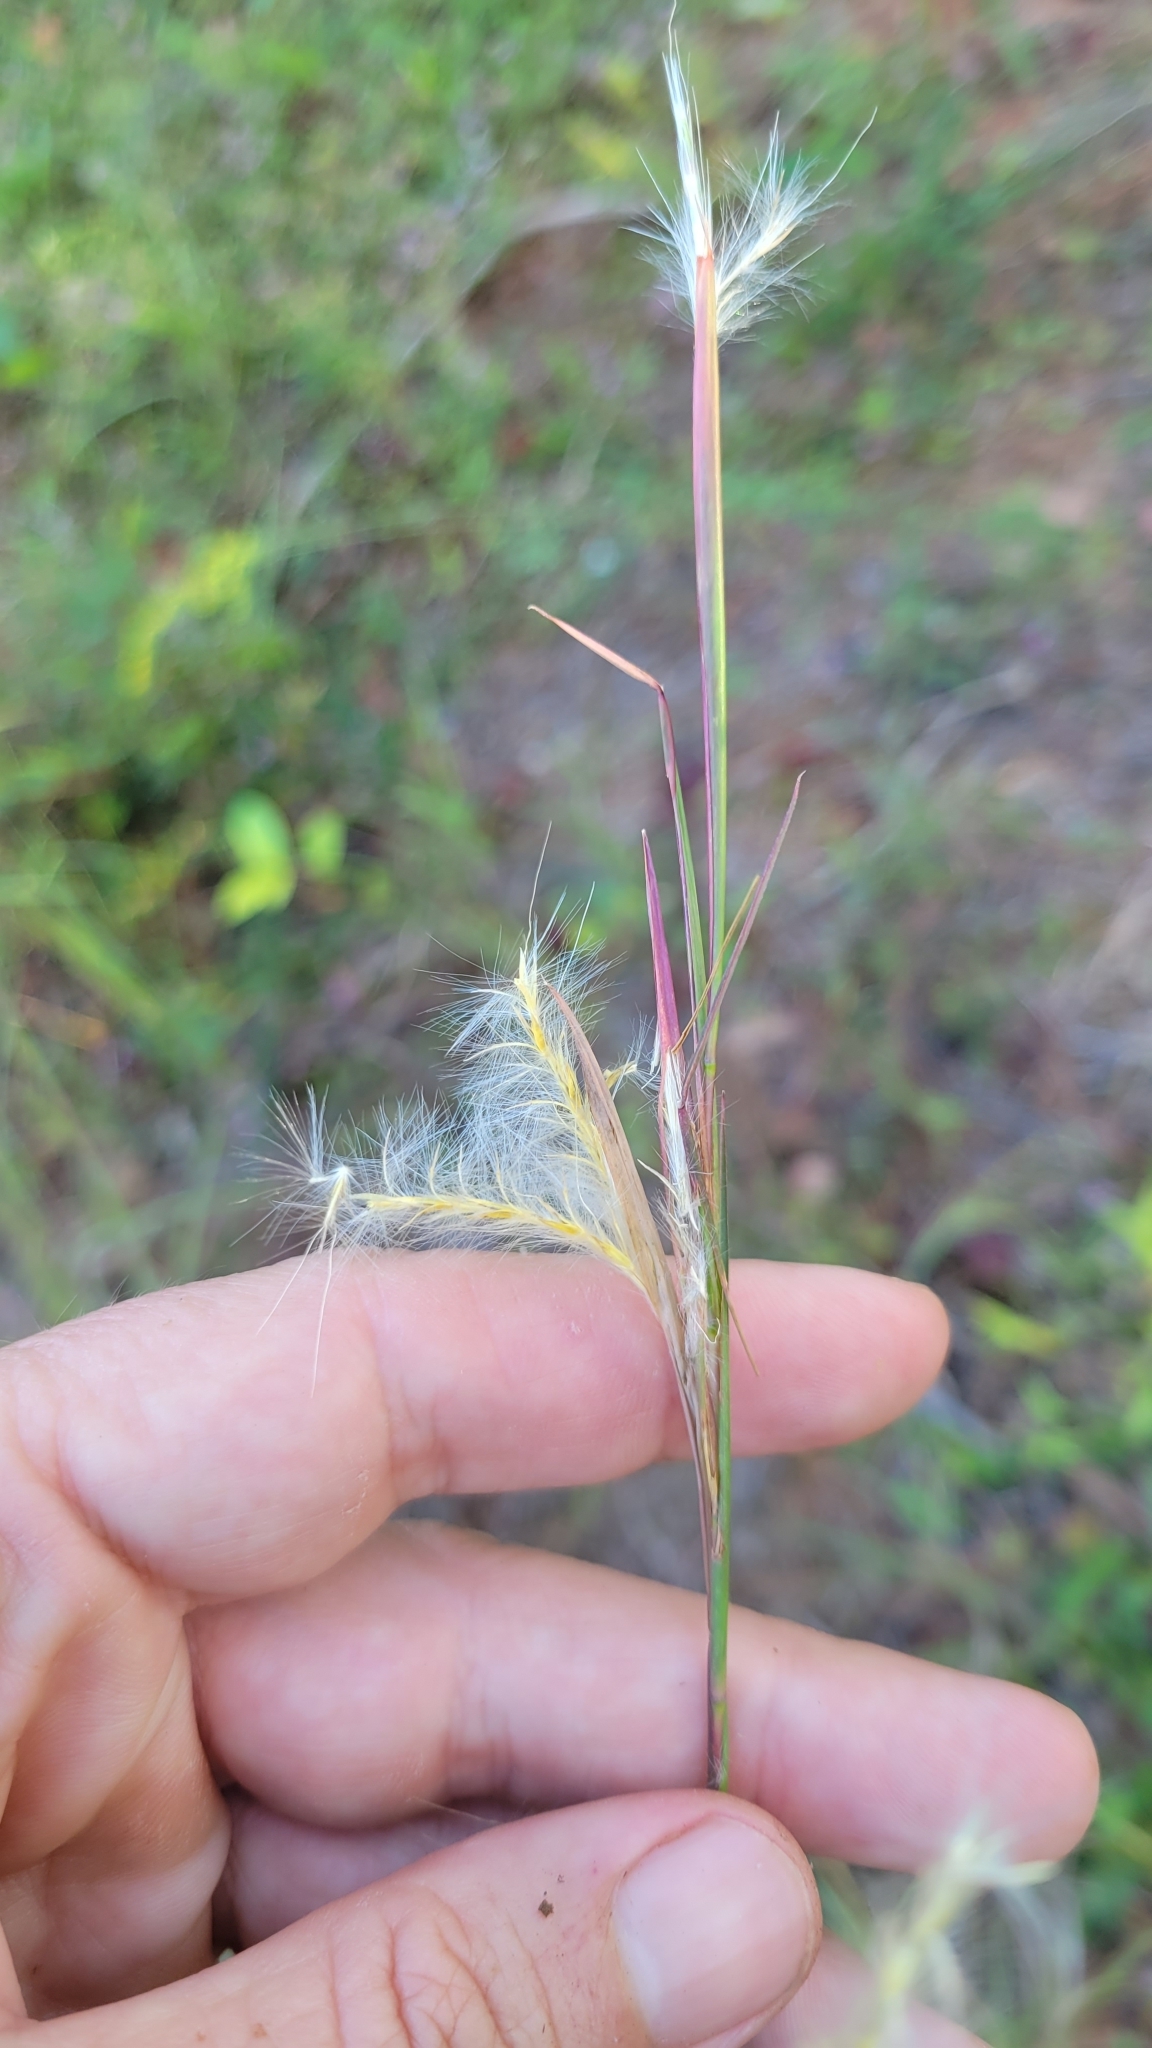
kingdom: Plantae
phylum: Tracheophyta
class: Liliopsida
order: Poales
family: Poaceae
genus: Andropogon
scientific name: Andropogon ternarius
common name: Split bluestem
